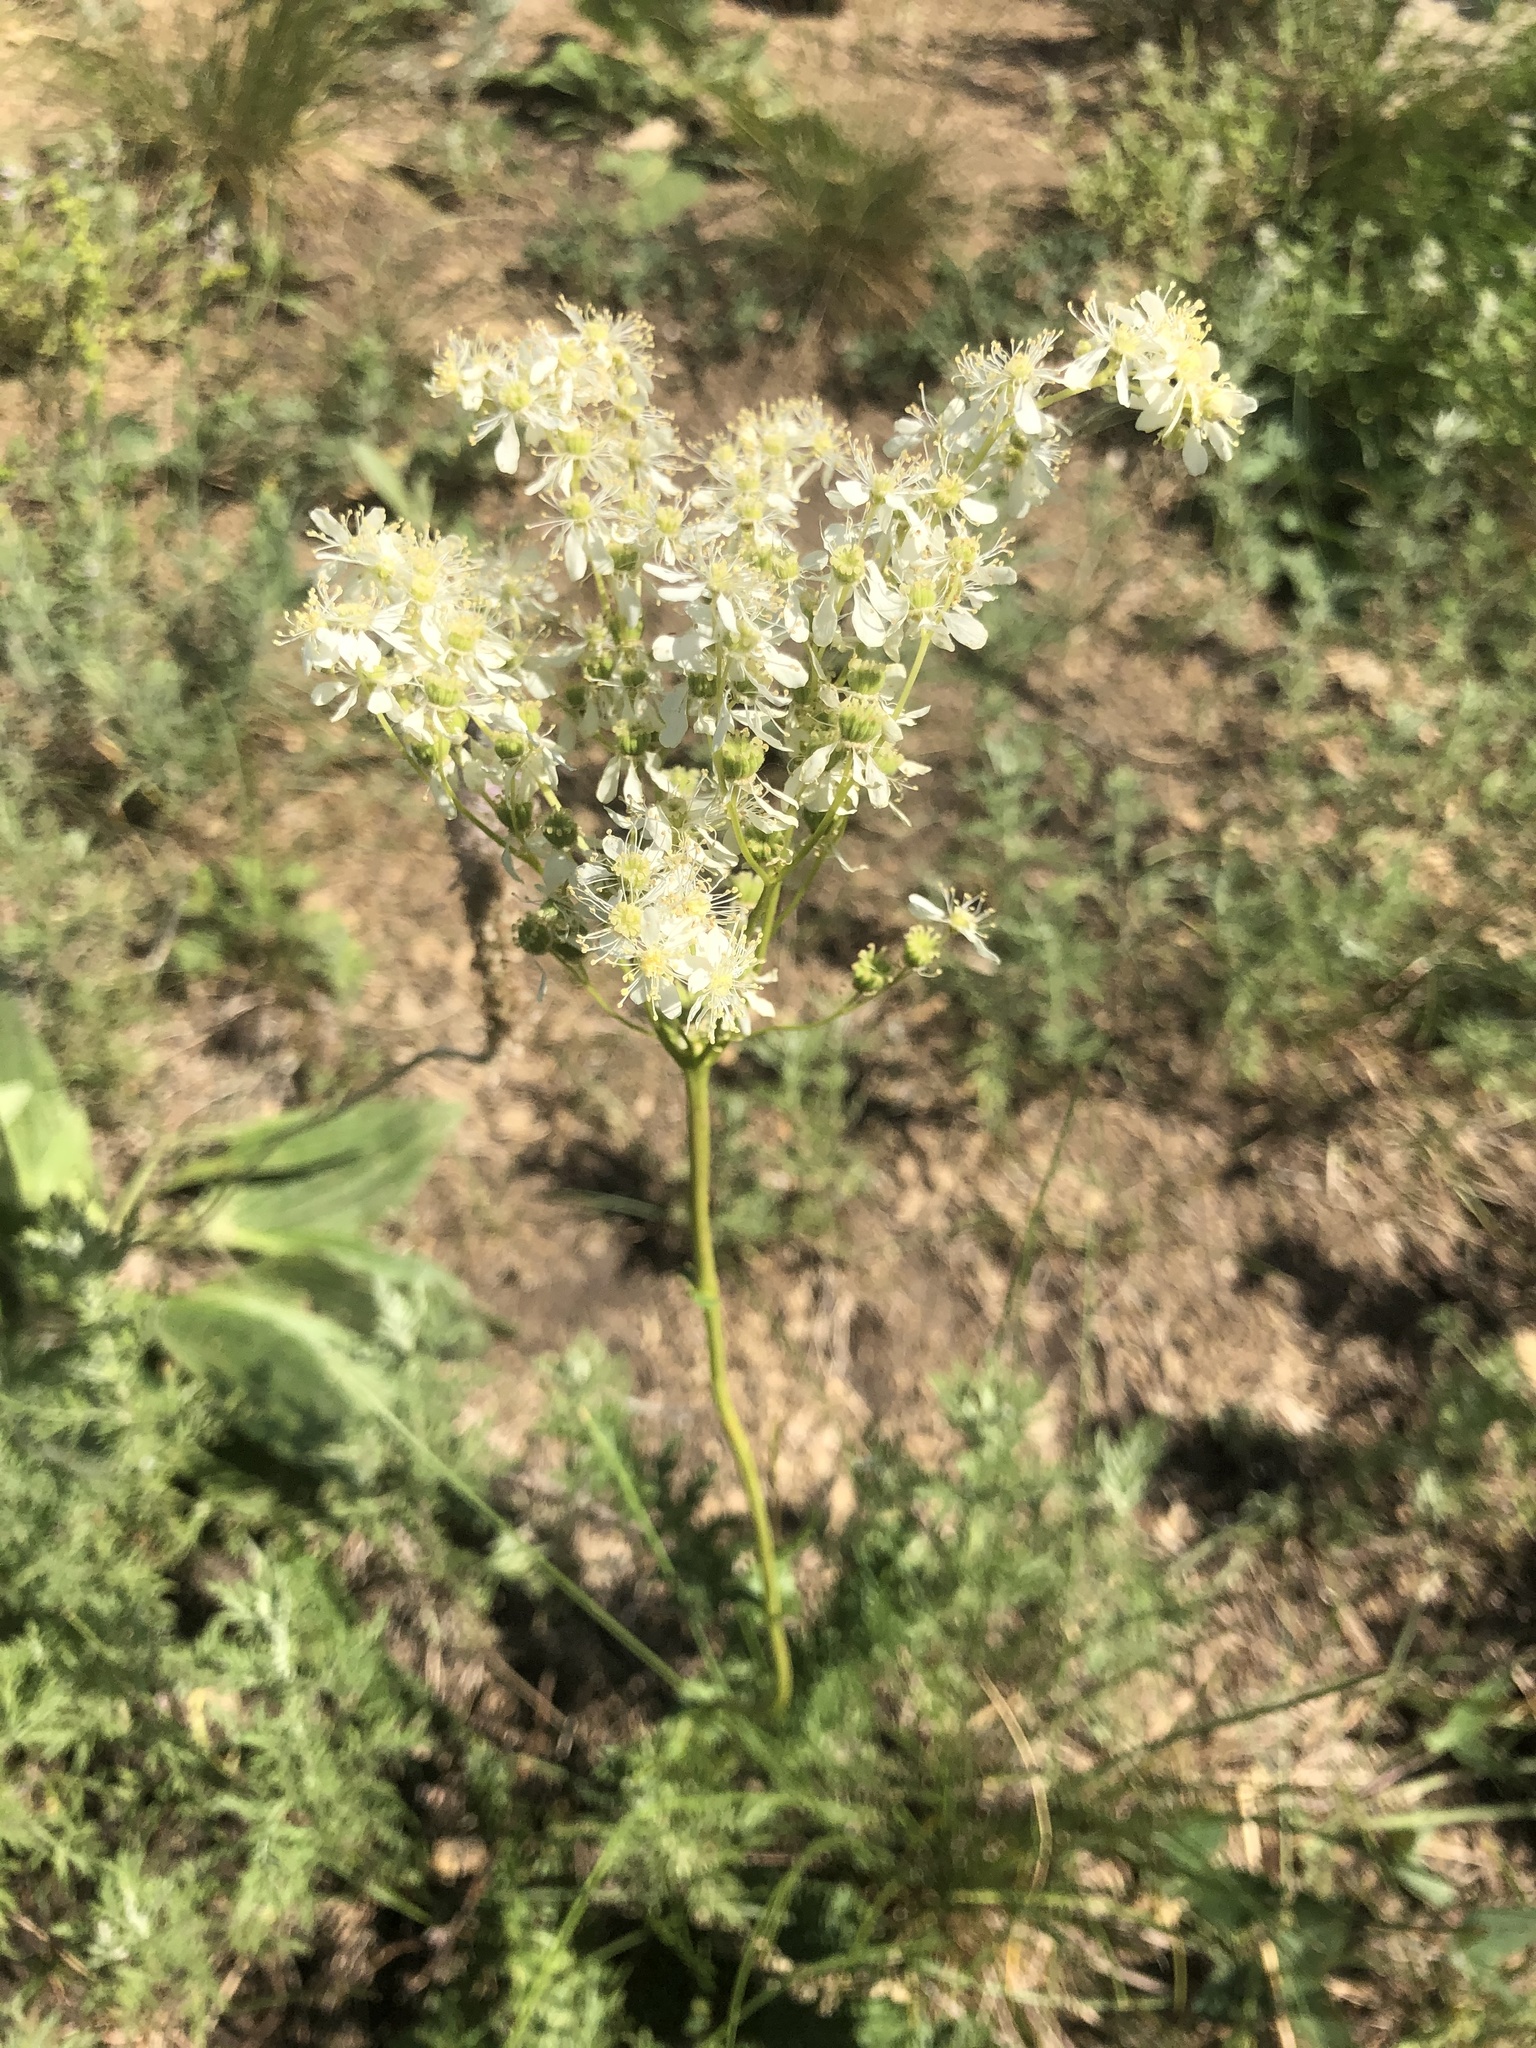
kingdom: Plantae
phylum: Tracheophyta
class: Magnoliopsida
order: Rosales
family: Rosaceae
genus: Filipendula
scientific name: Filipendula vulgaris
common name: Dropwort
